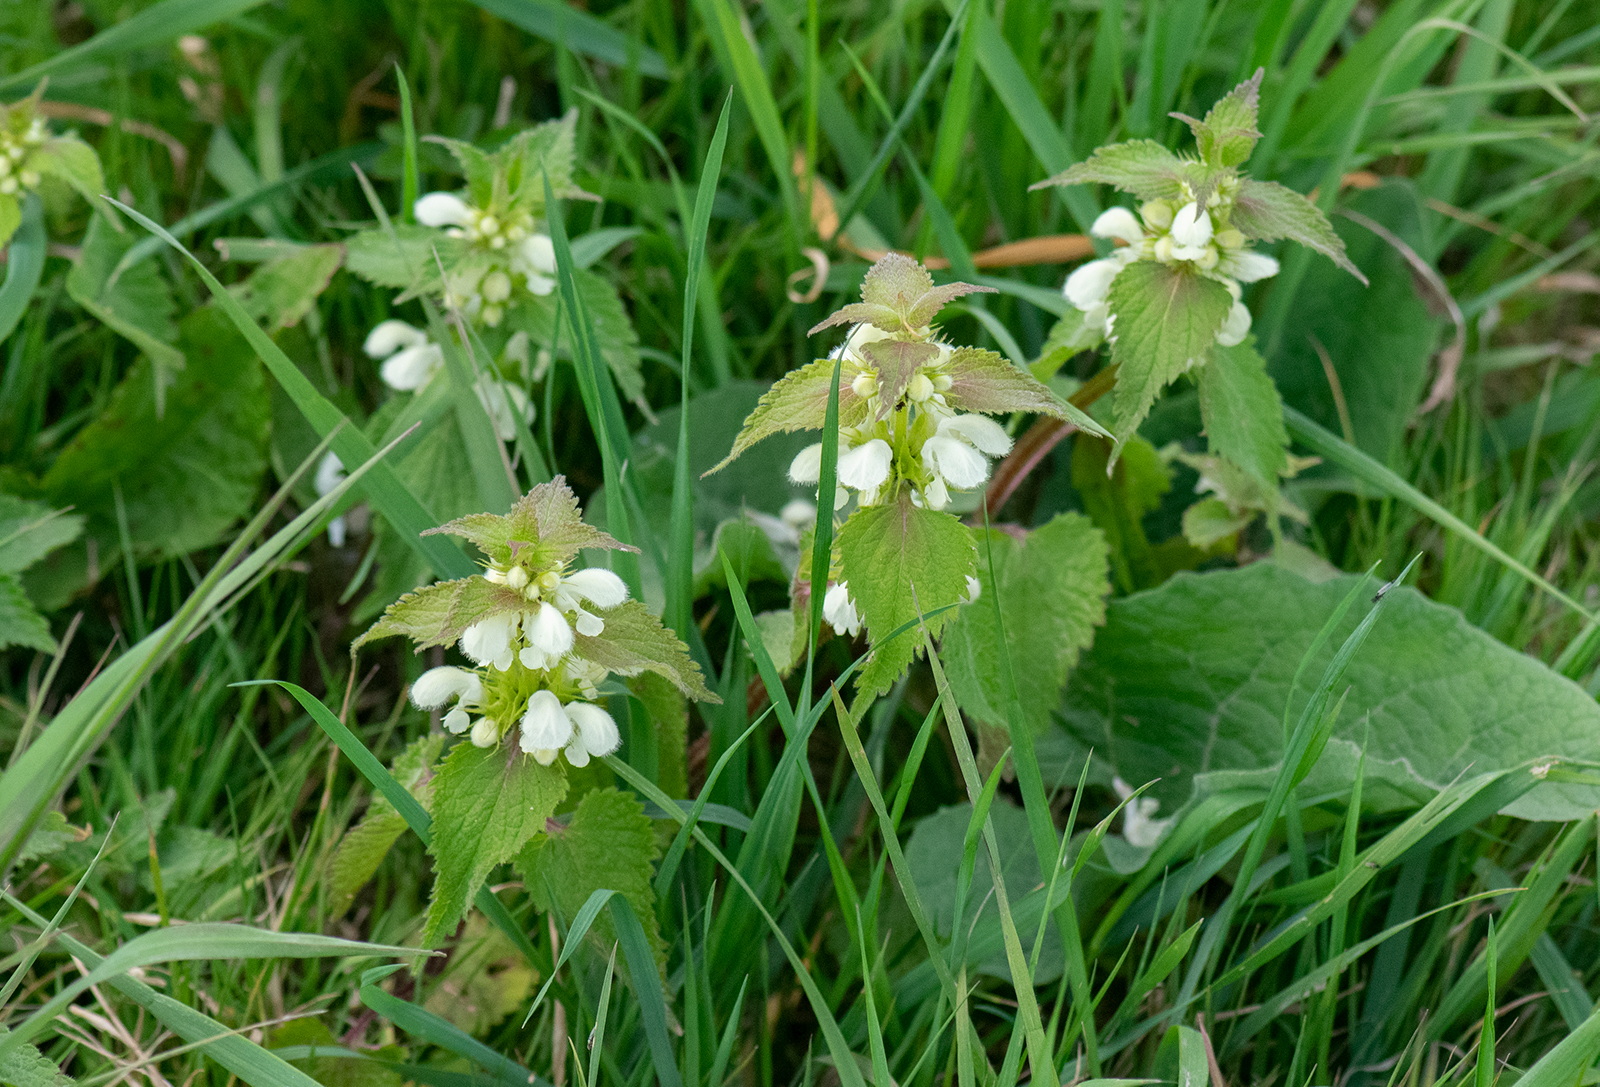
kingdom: Plantae
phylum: Tracheophyta
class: Magnoliopsida
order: Lamiales
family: Lamiaceae
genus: Lamium
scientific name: Lamium album
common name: White dead-nettle
